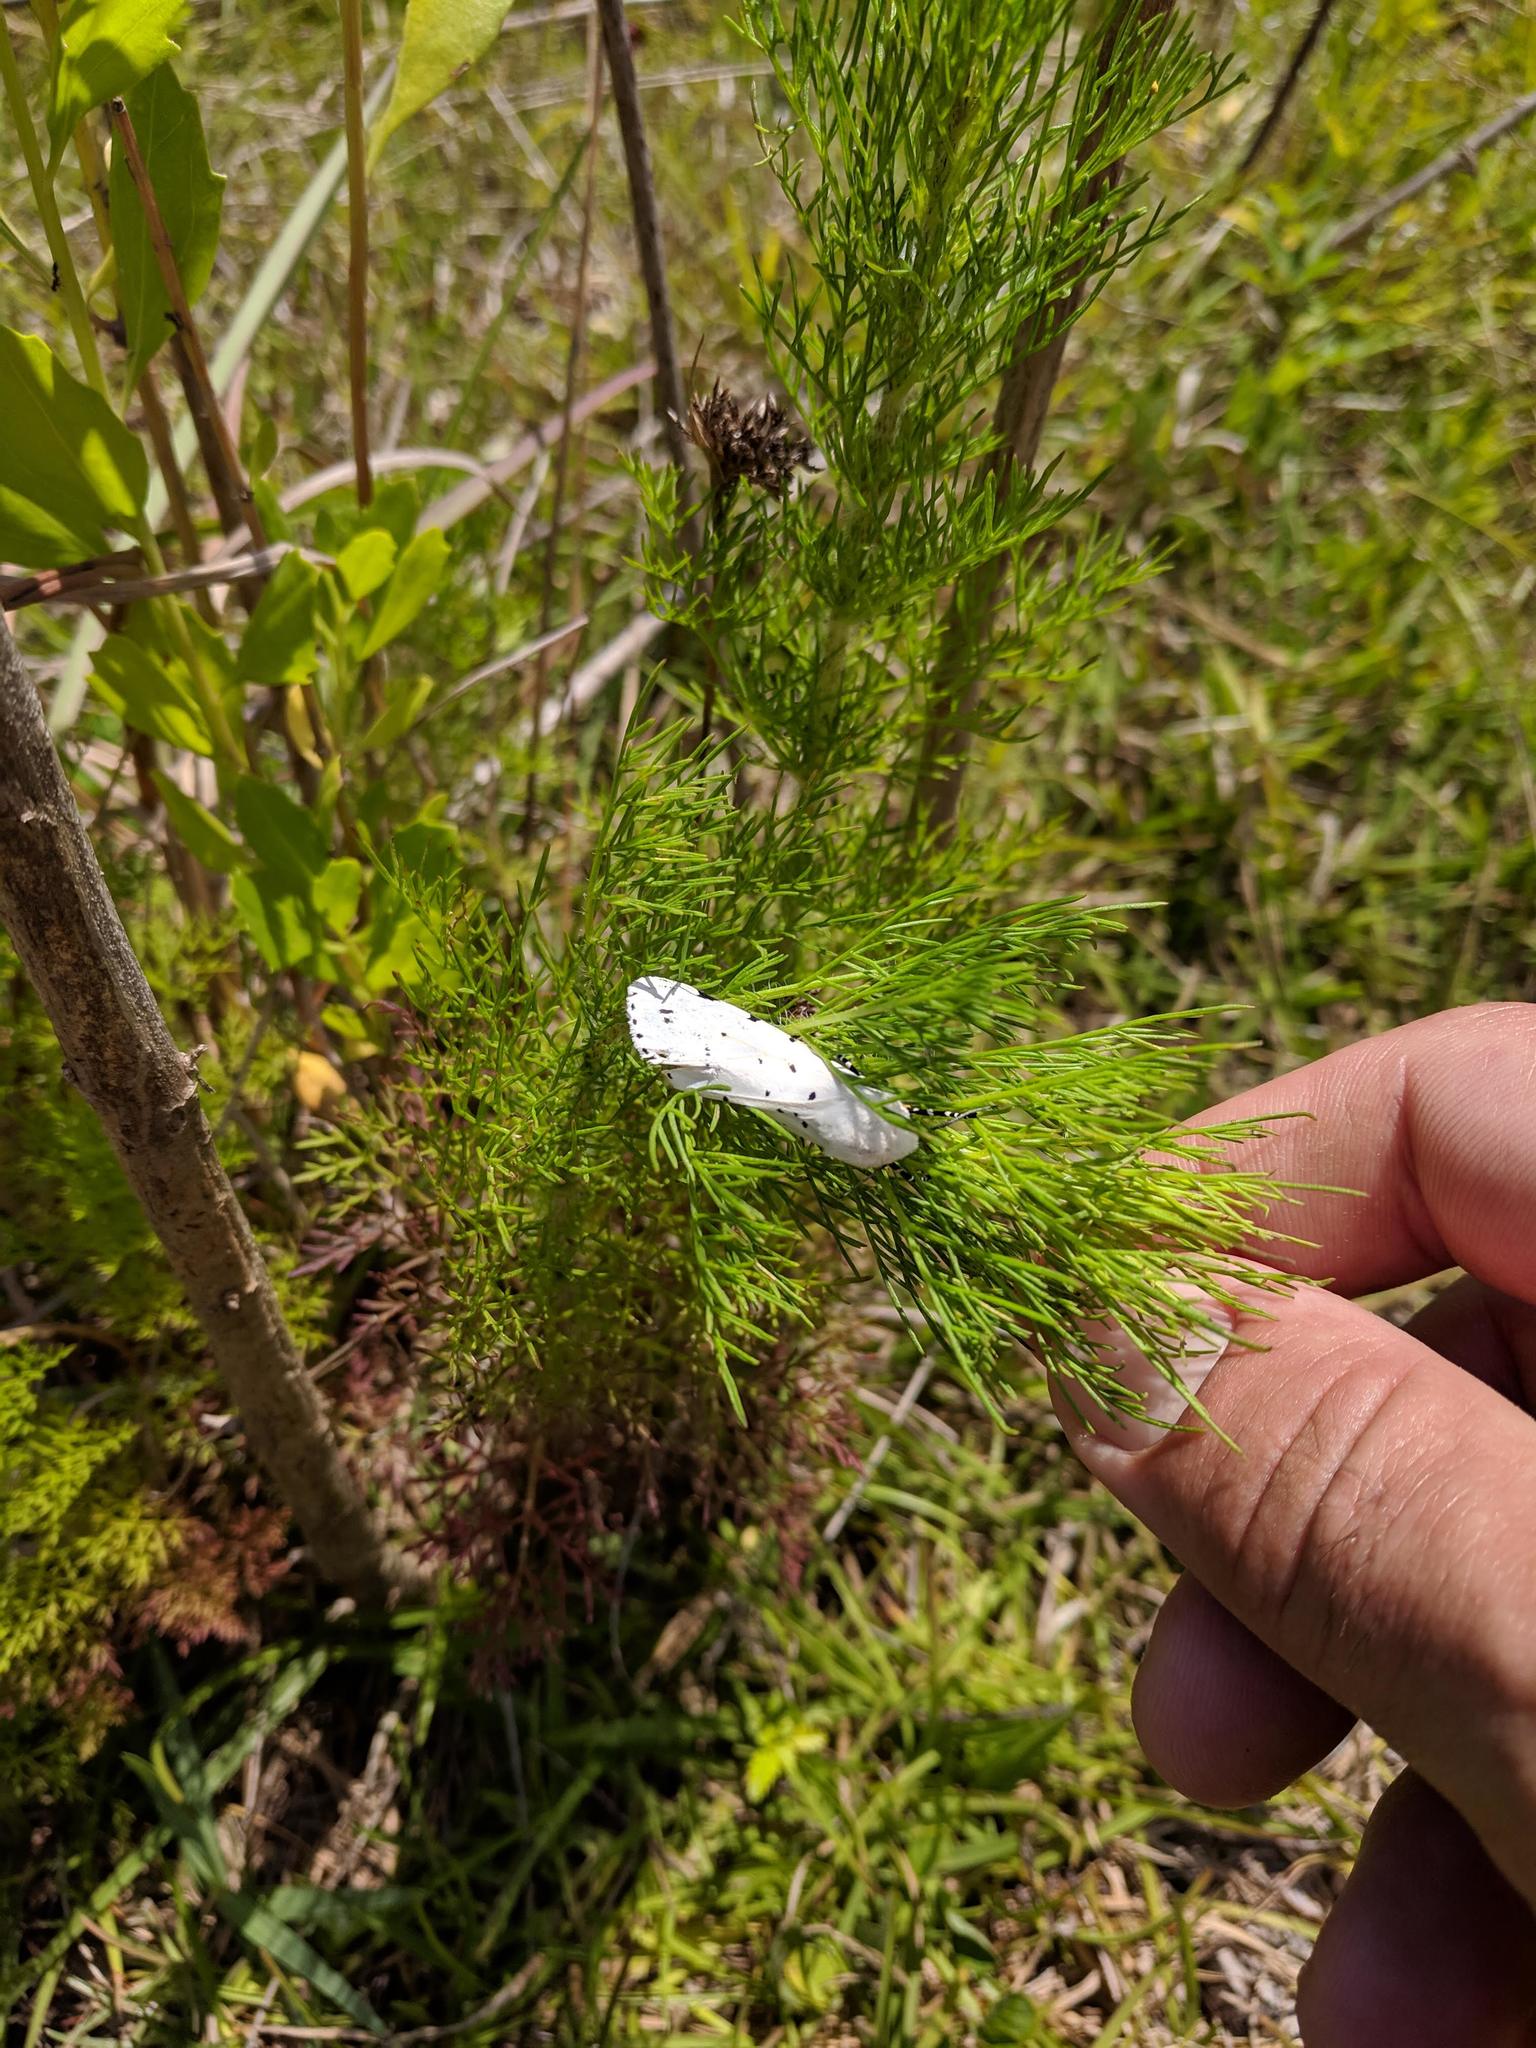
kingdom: Animalia
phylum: Arthropoda
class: Insecta
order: Lepidoptera
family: Erebidae
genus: Estigmene
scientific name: Estigmene acrea
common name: Salt marsh moth
